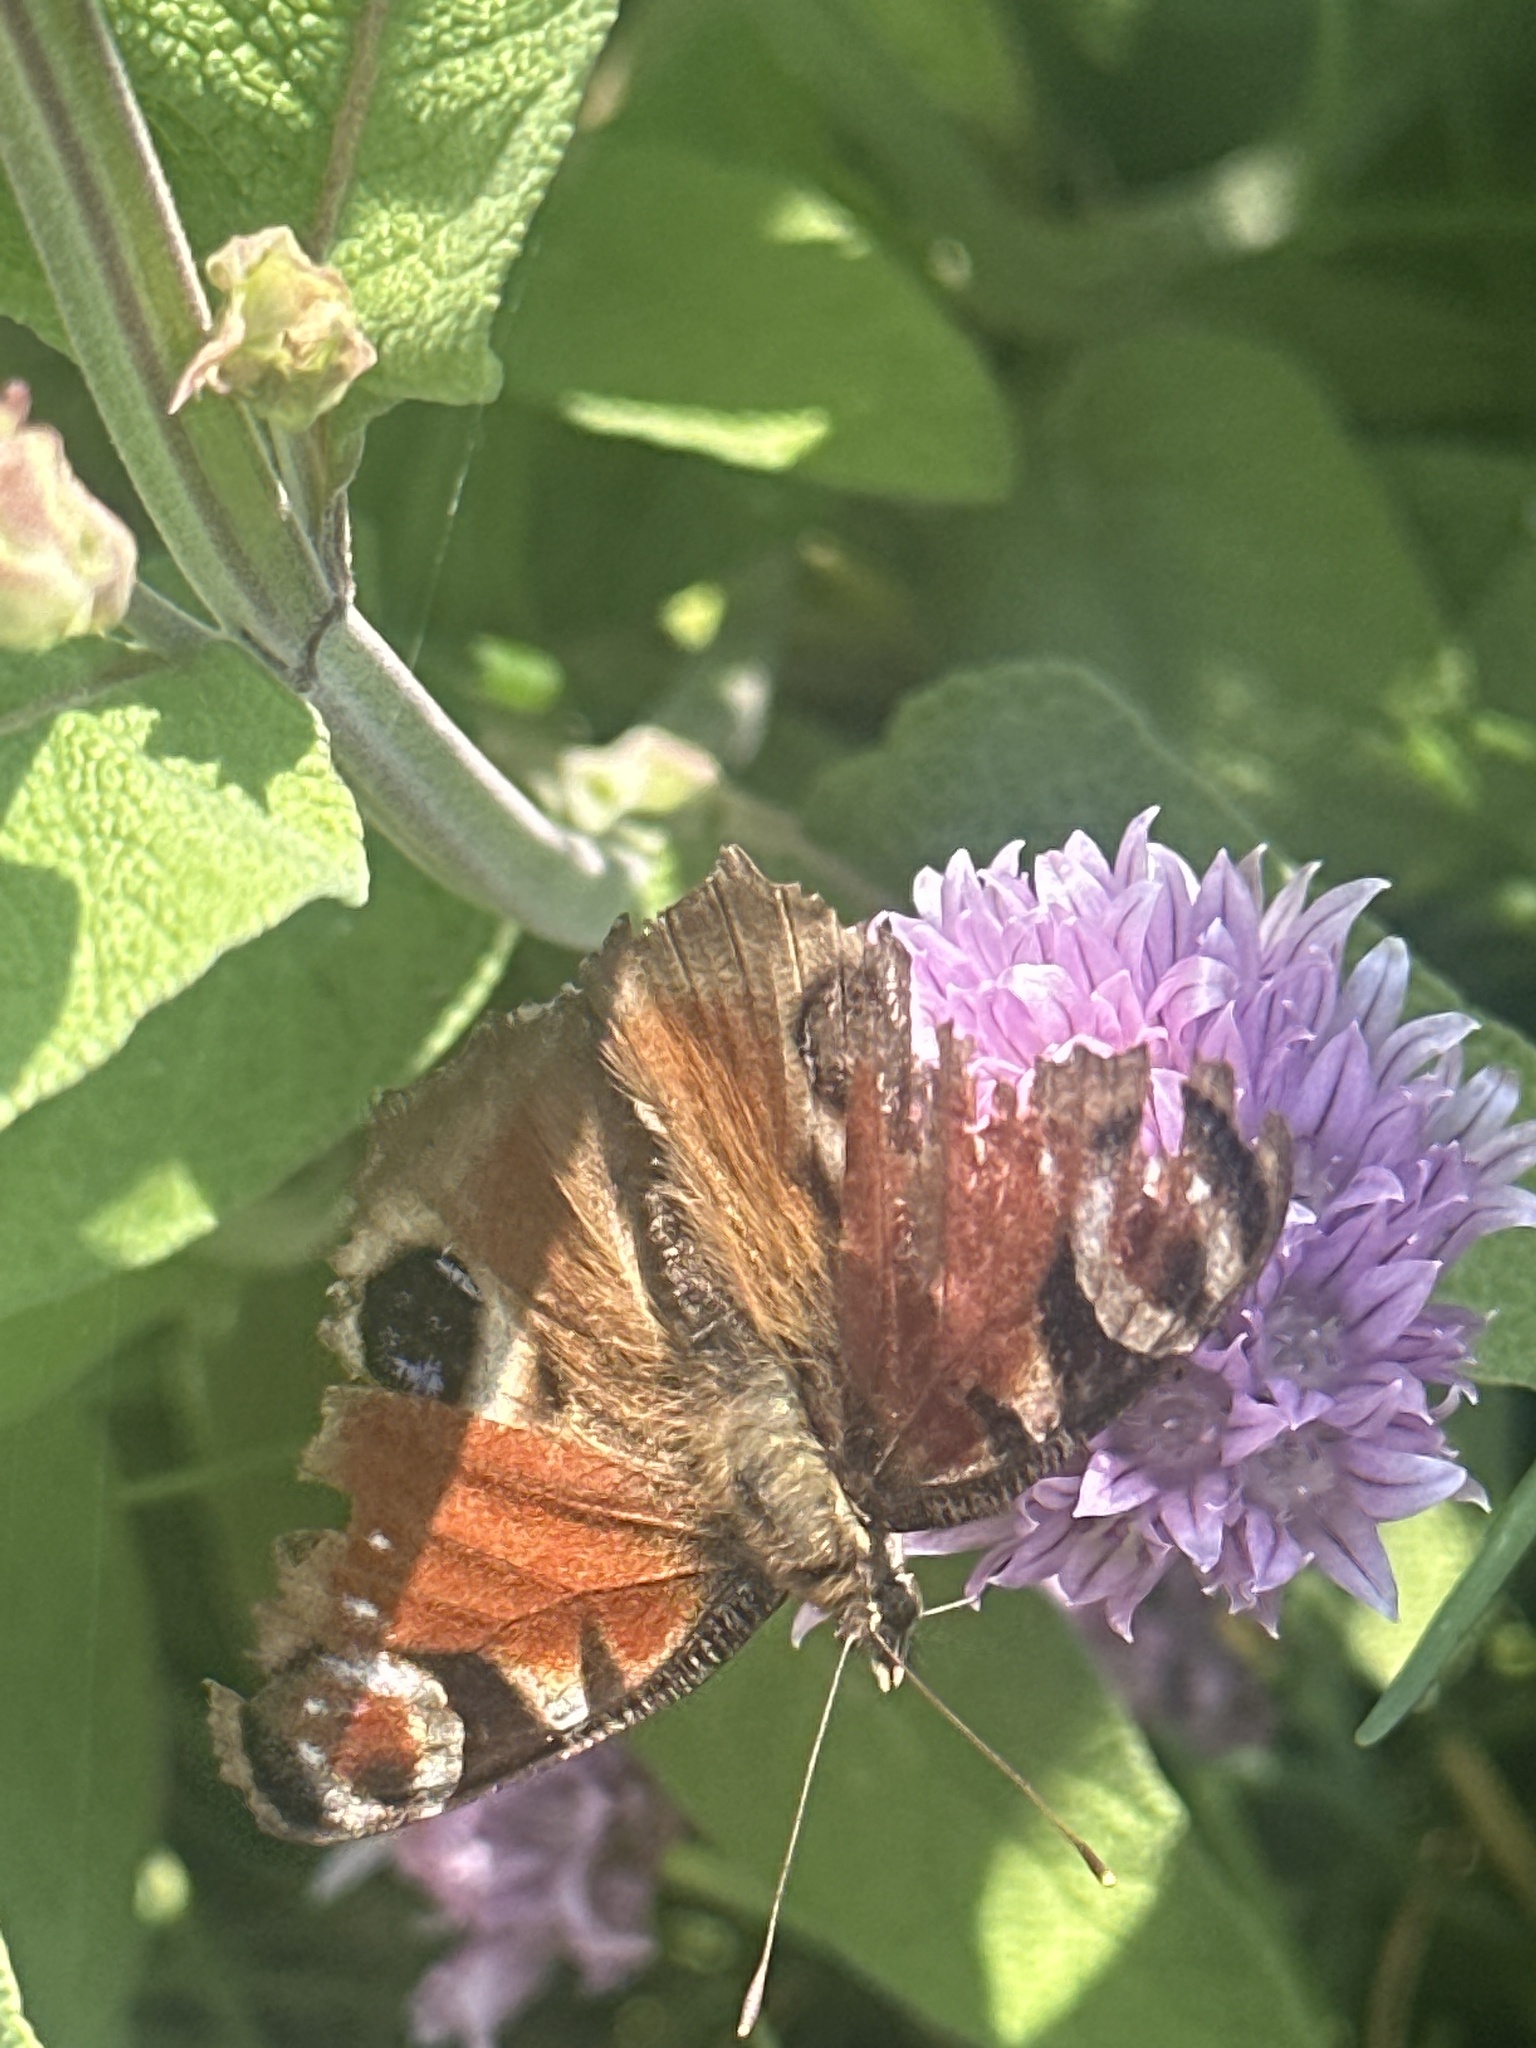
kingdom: Animalia
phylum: Arthropoda
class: Insecta
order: Lepidoptera
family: Nymphalidae
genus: Aglais
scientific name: Aglais io
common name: Peacock
